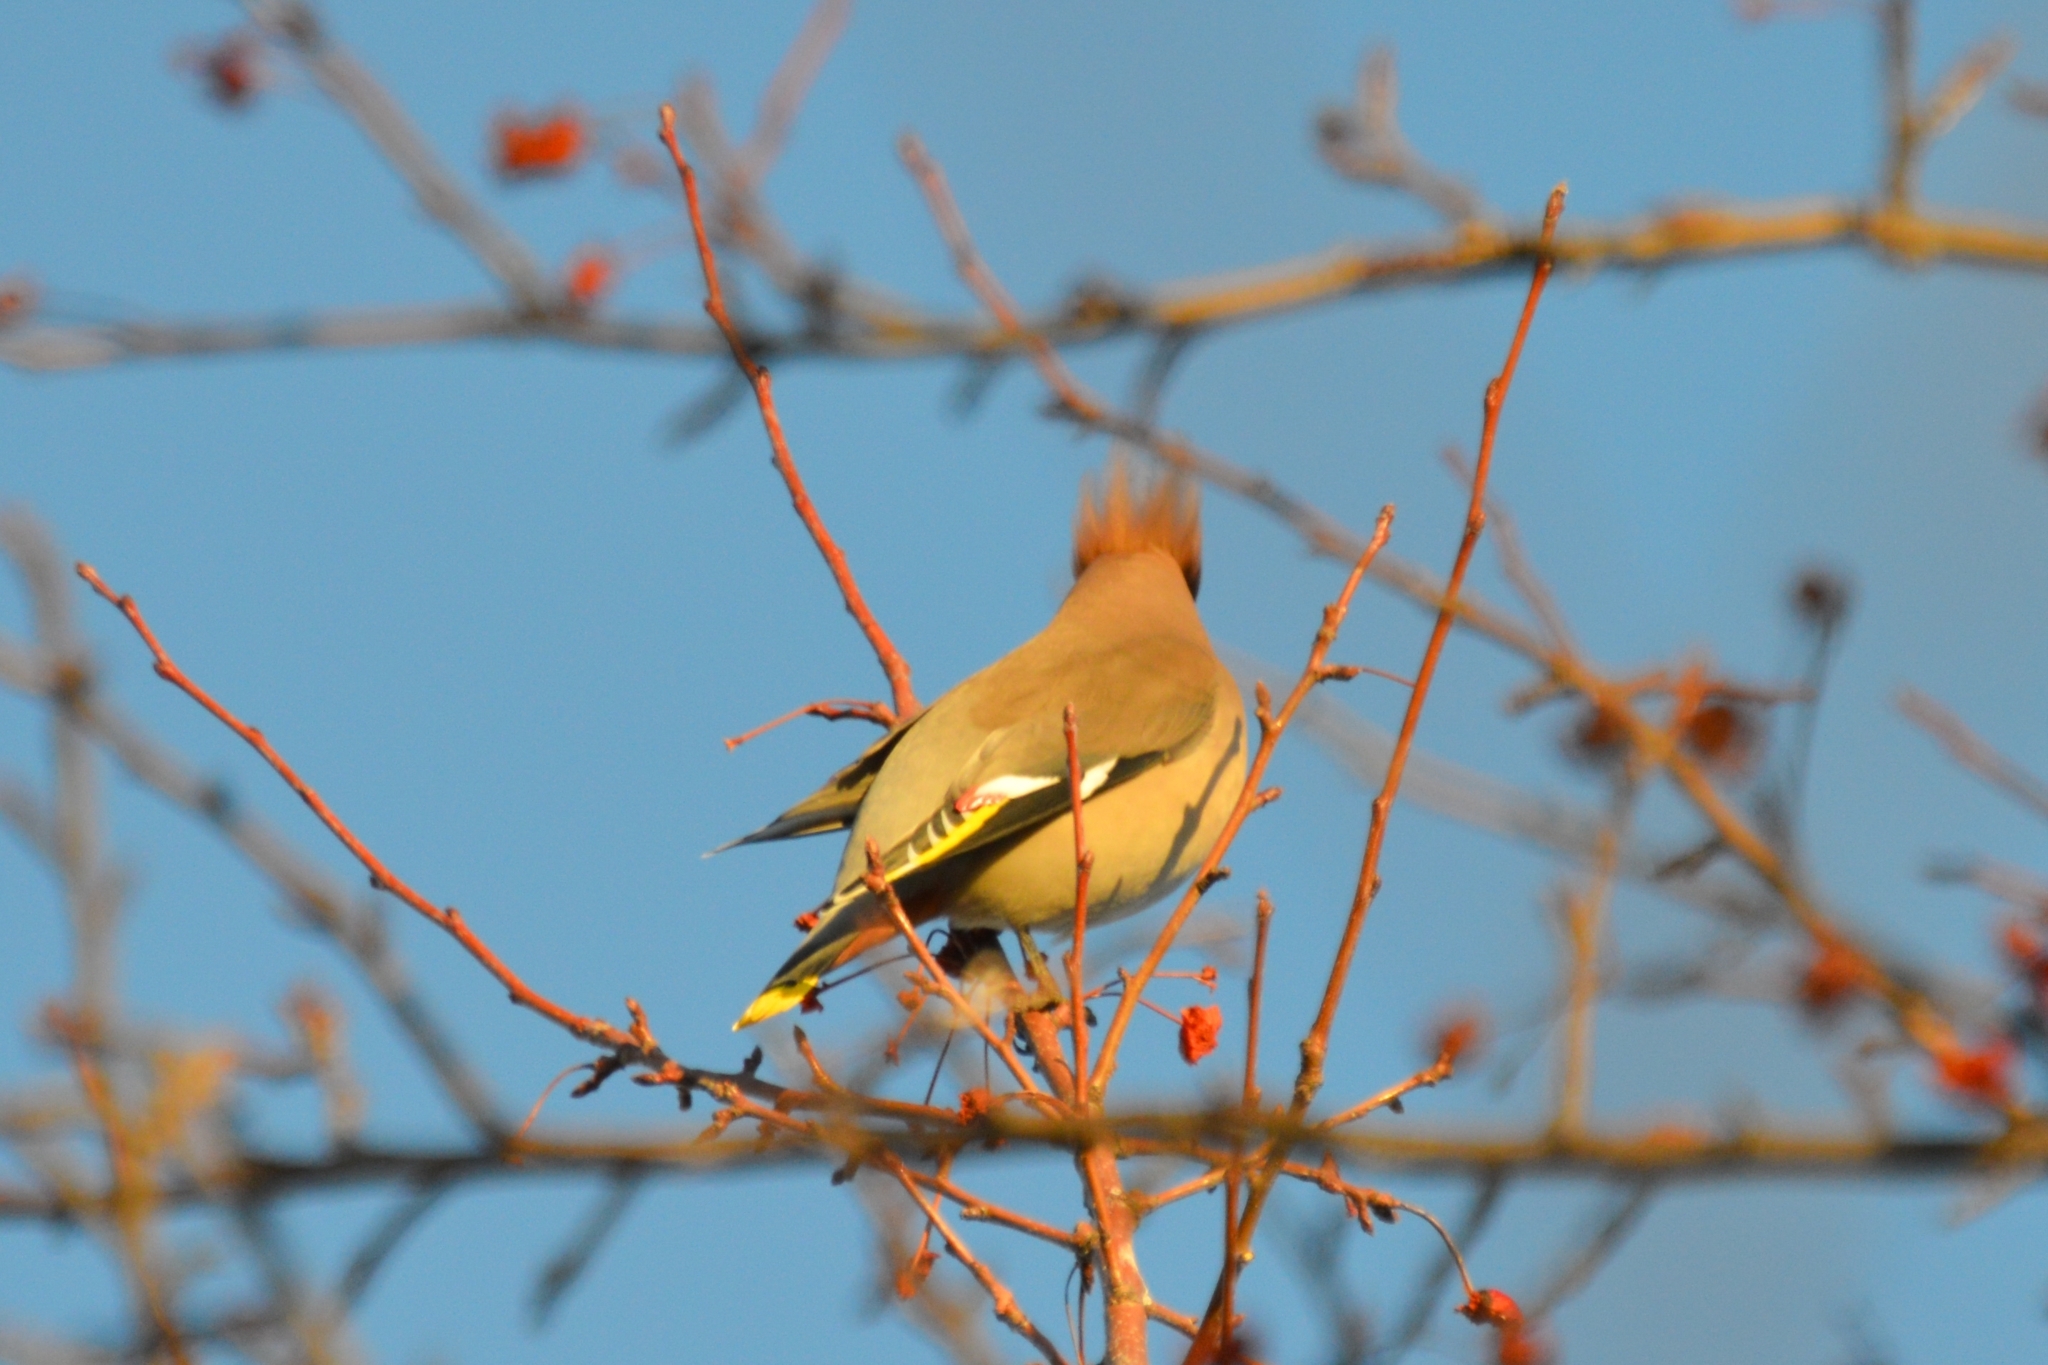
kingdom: Animalia
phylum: Chordata
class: Aves
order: Passeriformes
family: Bombycillidae
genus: Bombycilla
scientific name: Bombycilla garrulus
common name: Bohemian waxwing
